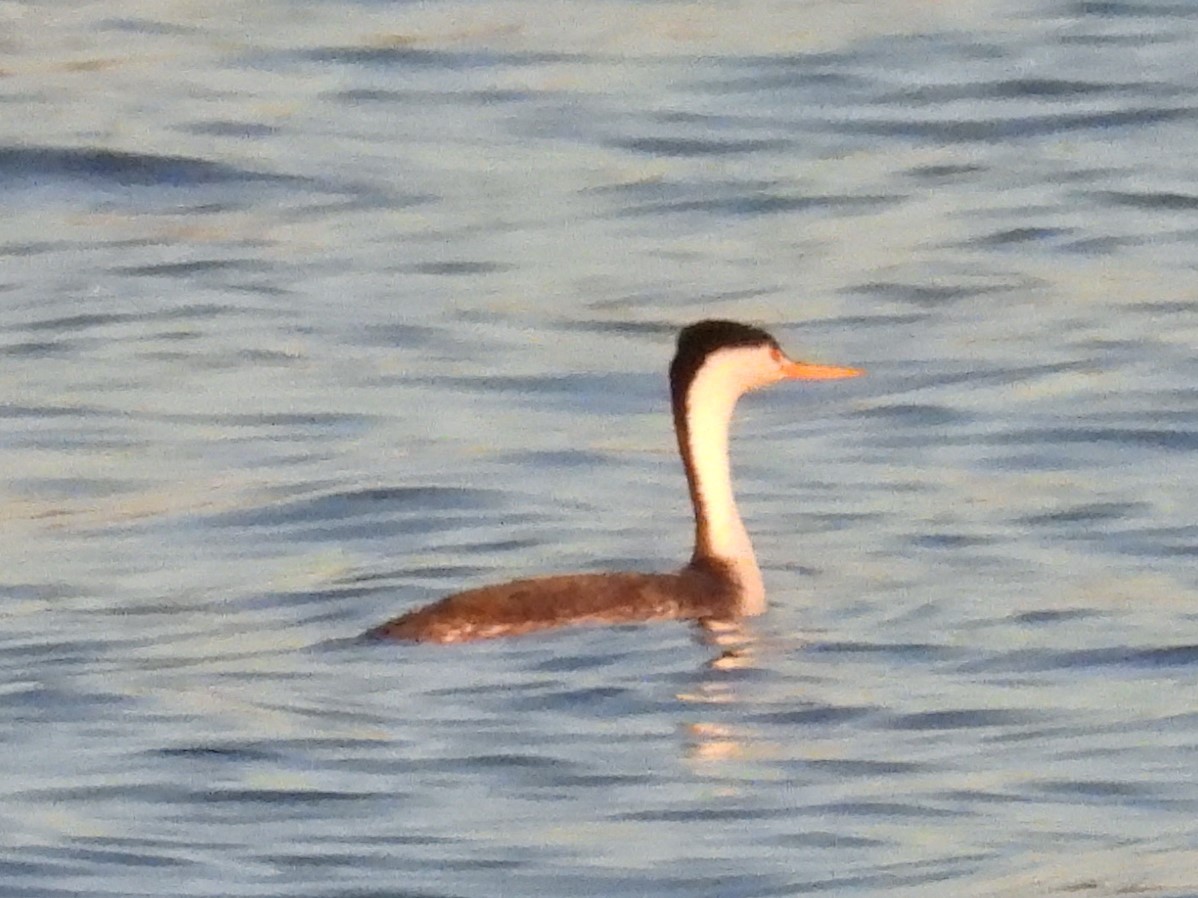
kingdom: Animalia
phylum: Chordata
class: Aves
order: Podicipediformes
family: Podicipedidae
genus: Aechmophorus
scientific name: Aechmophorus clarkii
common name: Clark's grebe
